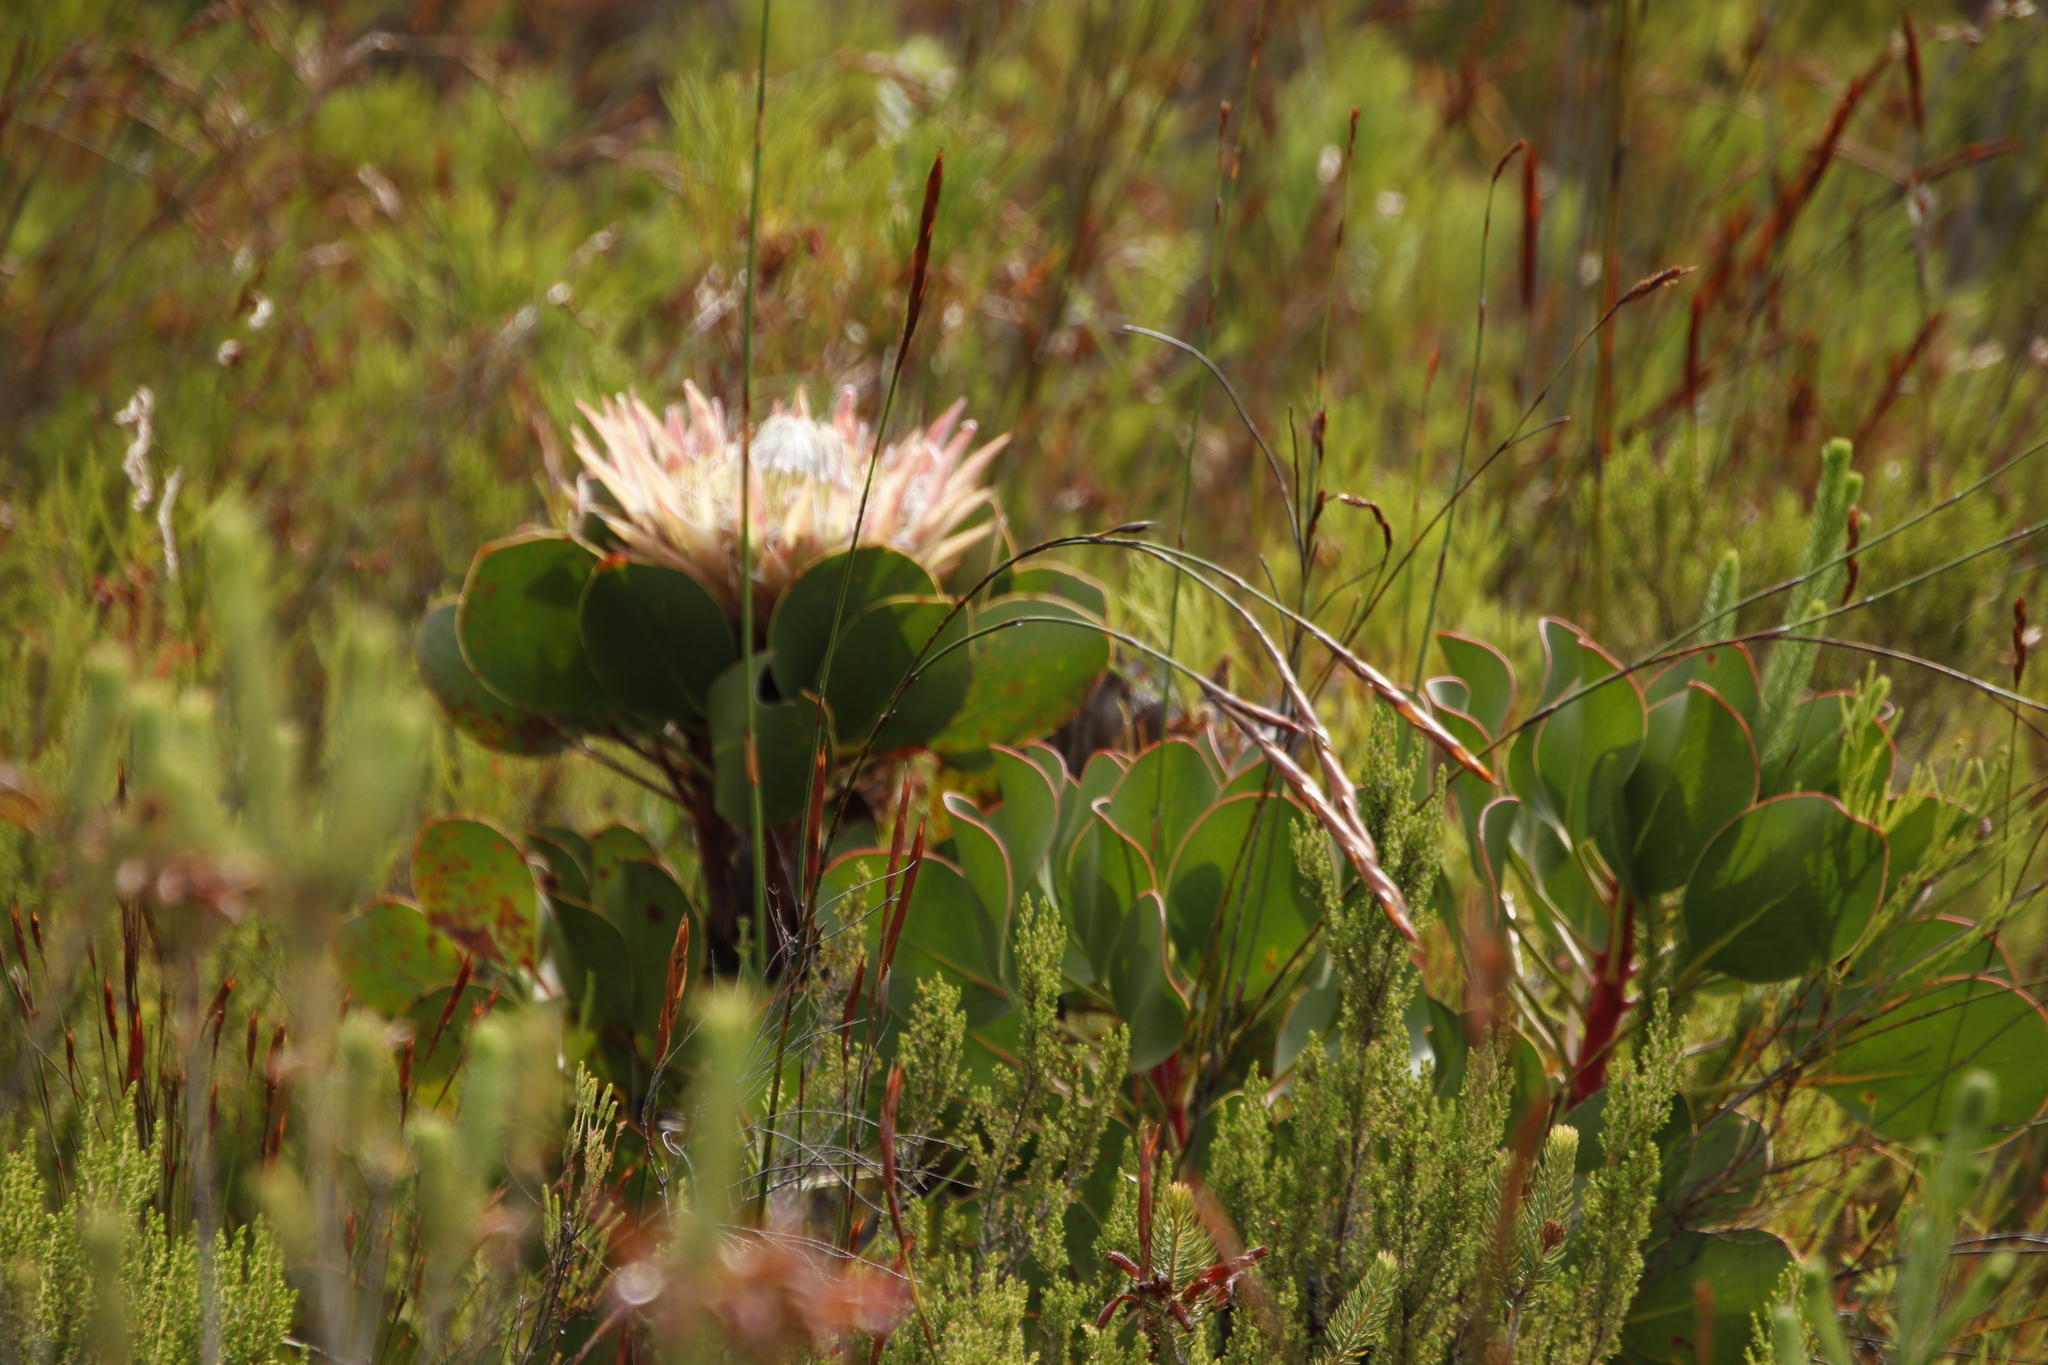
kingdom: Plantae
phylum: Tracheophyta
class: Magnoliopsida
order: Proteales
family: Proteaceae
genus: Protea
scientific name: Protea cynaroides
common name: King protea
